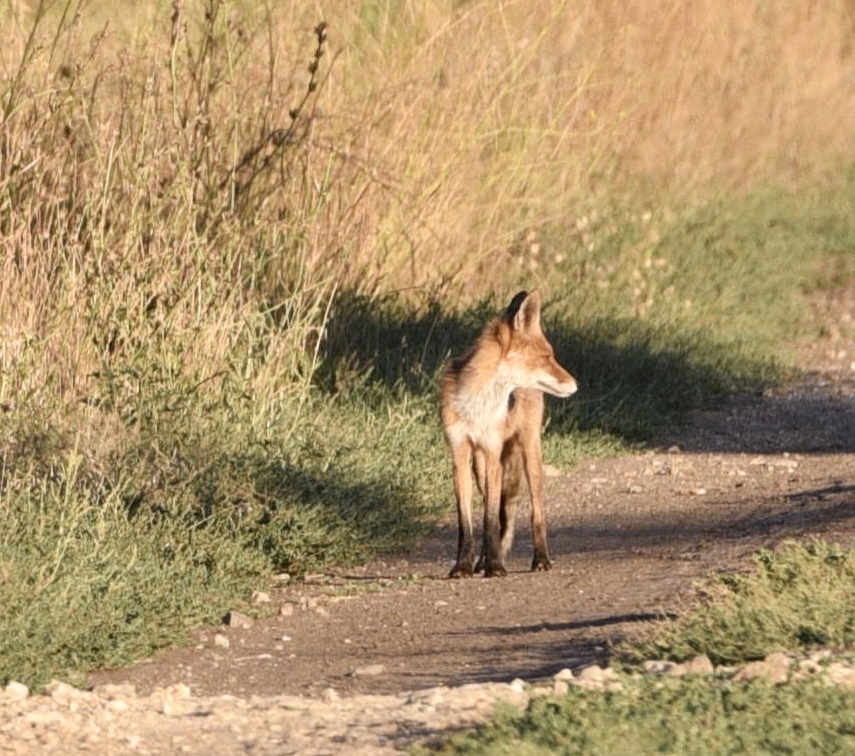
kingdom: Animalia
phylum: Chordata
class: Mammalia
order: Carnivora
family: Canidae
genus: Vulpes
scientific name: Vulpes vulpes
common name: Red fox
